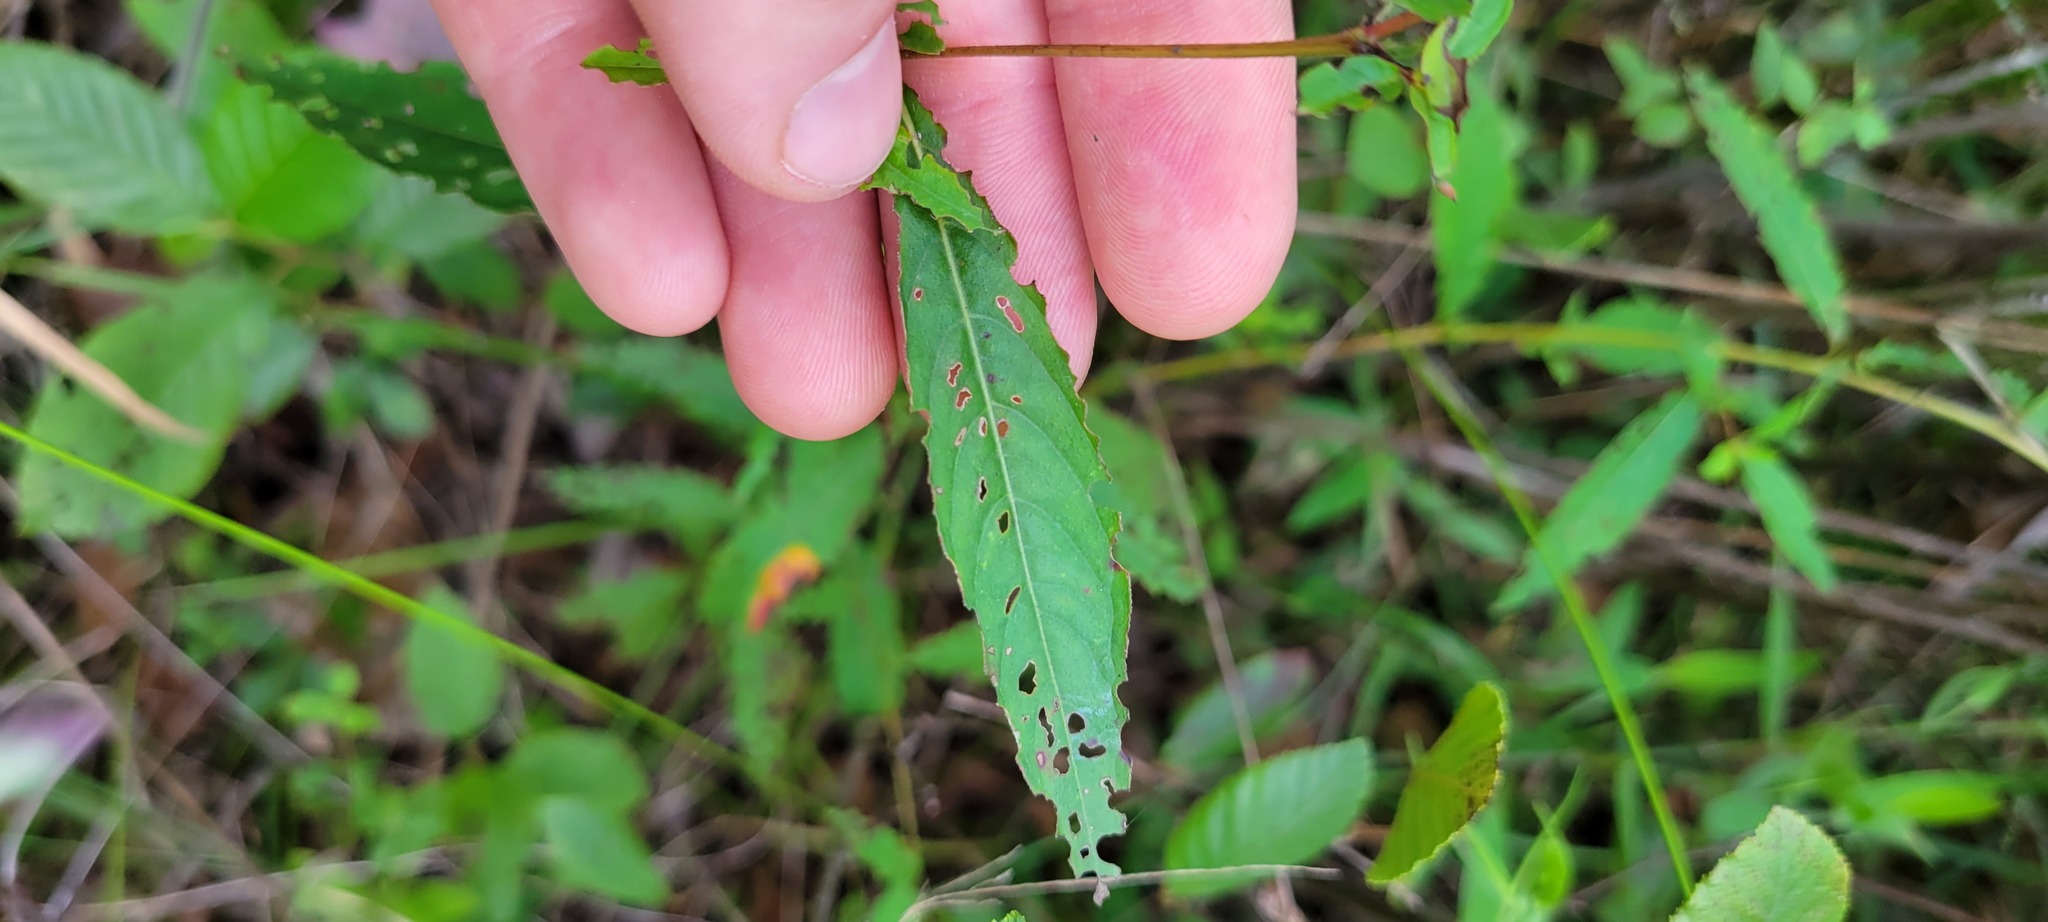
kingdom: Plantae
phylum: Tracheophyta
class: Magnoliopsida
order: Myrtales
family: Onagraceae
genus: Ludwigia
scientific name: Ludwigia alternifolia
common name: Rattlebox
